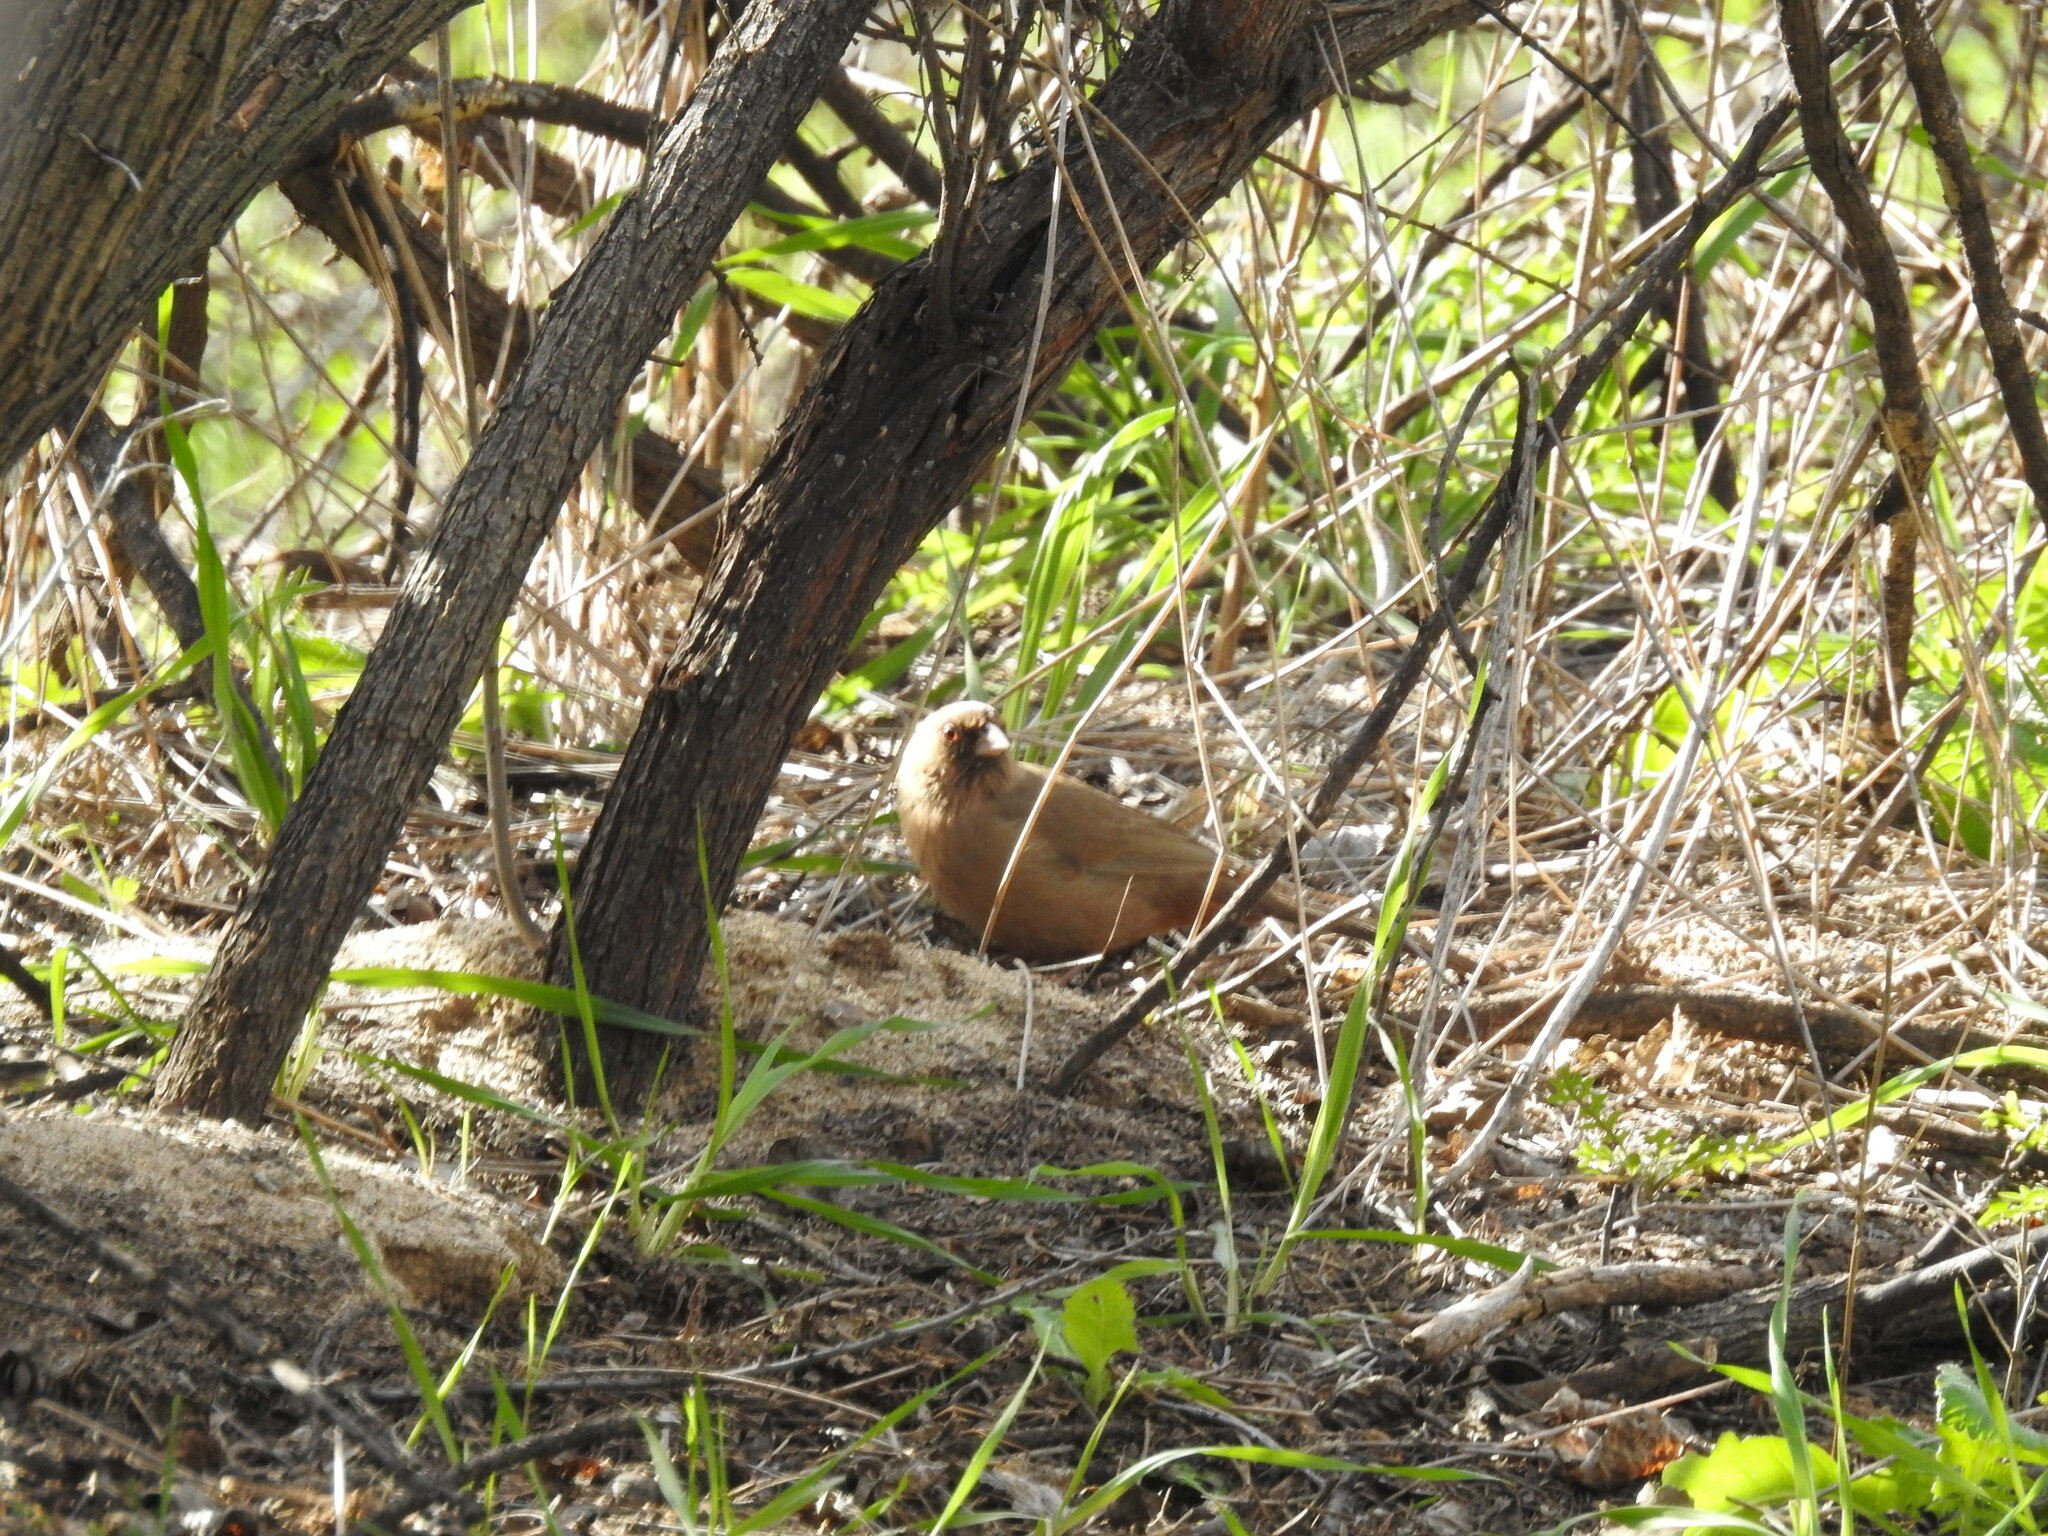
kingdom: Animalia
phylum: Chordata
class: Aves
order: Passeriformes
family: Passerellidae
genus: Melozone
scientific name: Melozone aberti
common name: Abert's towhee
